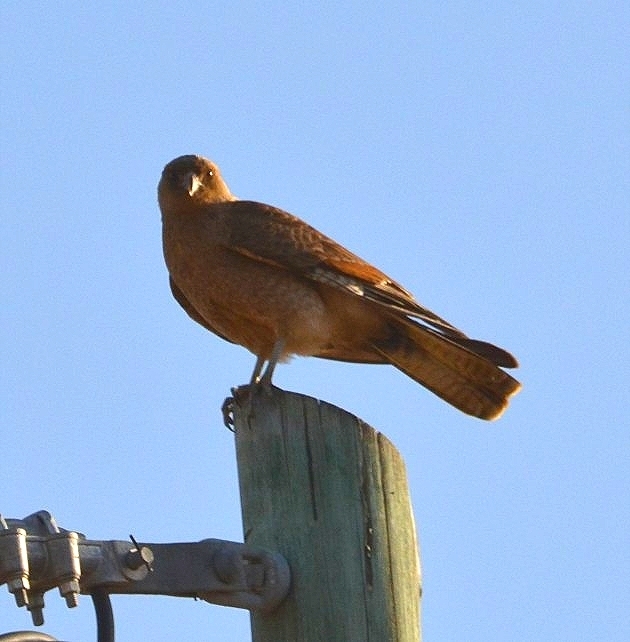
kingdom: Animalia
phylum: Chordata
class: Aves
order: Falconiformes
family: Falconidae
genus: Daptrius
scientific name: Daptrius
